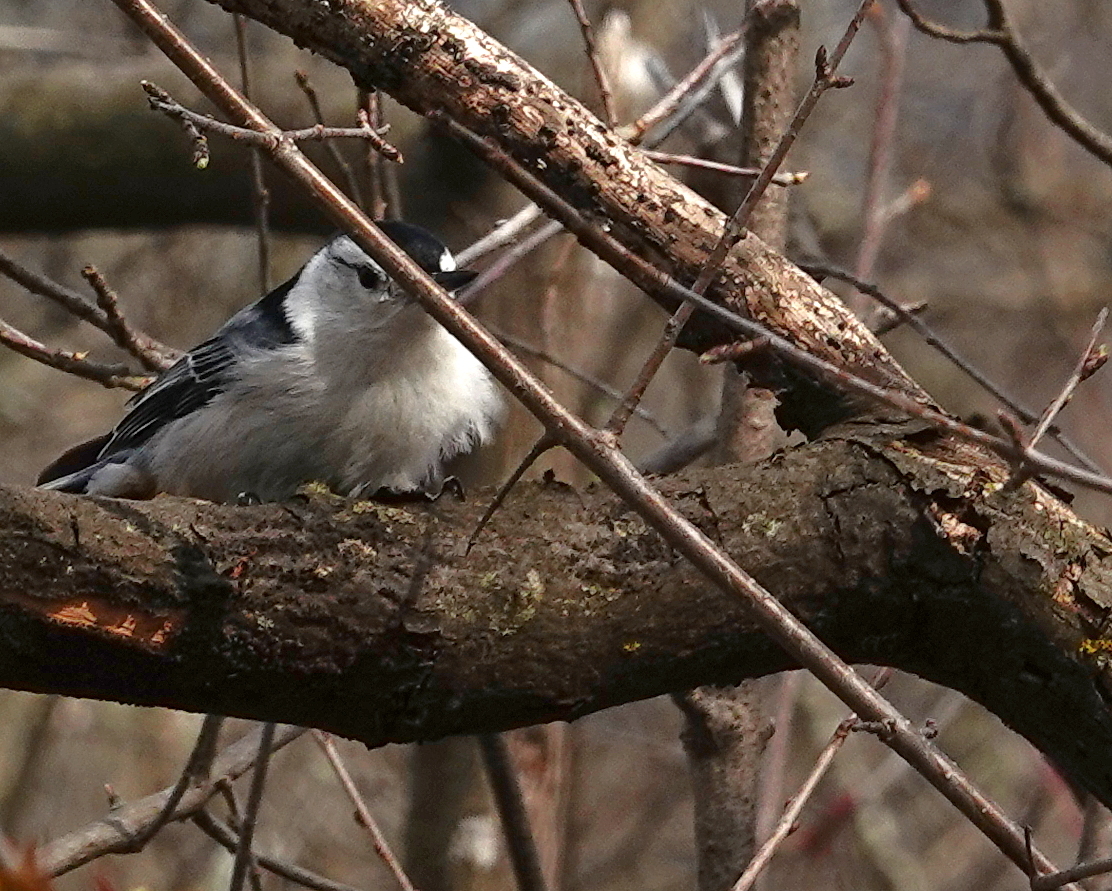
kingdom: Animalia
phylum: Chordata
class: Aves
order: Passeriformes
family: Sittidae
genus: Sitta
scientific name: Sitta carolinensis
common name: White-breasted nuthatch
